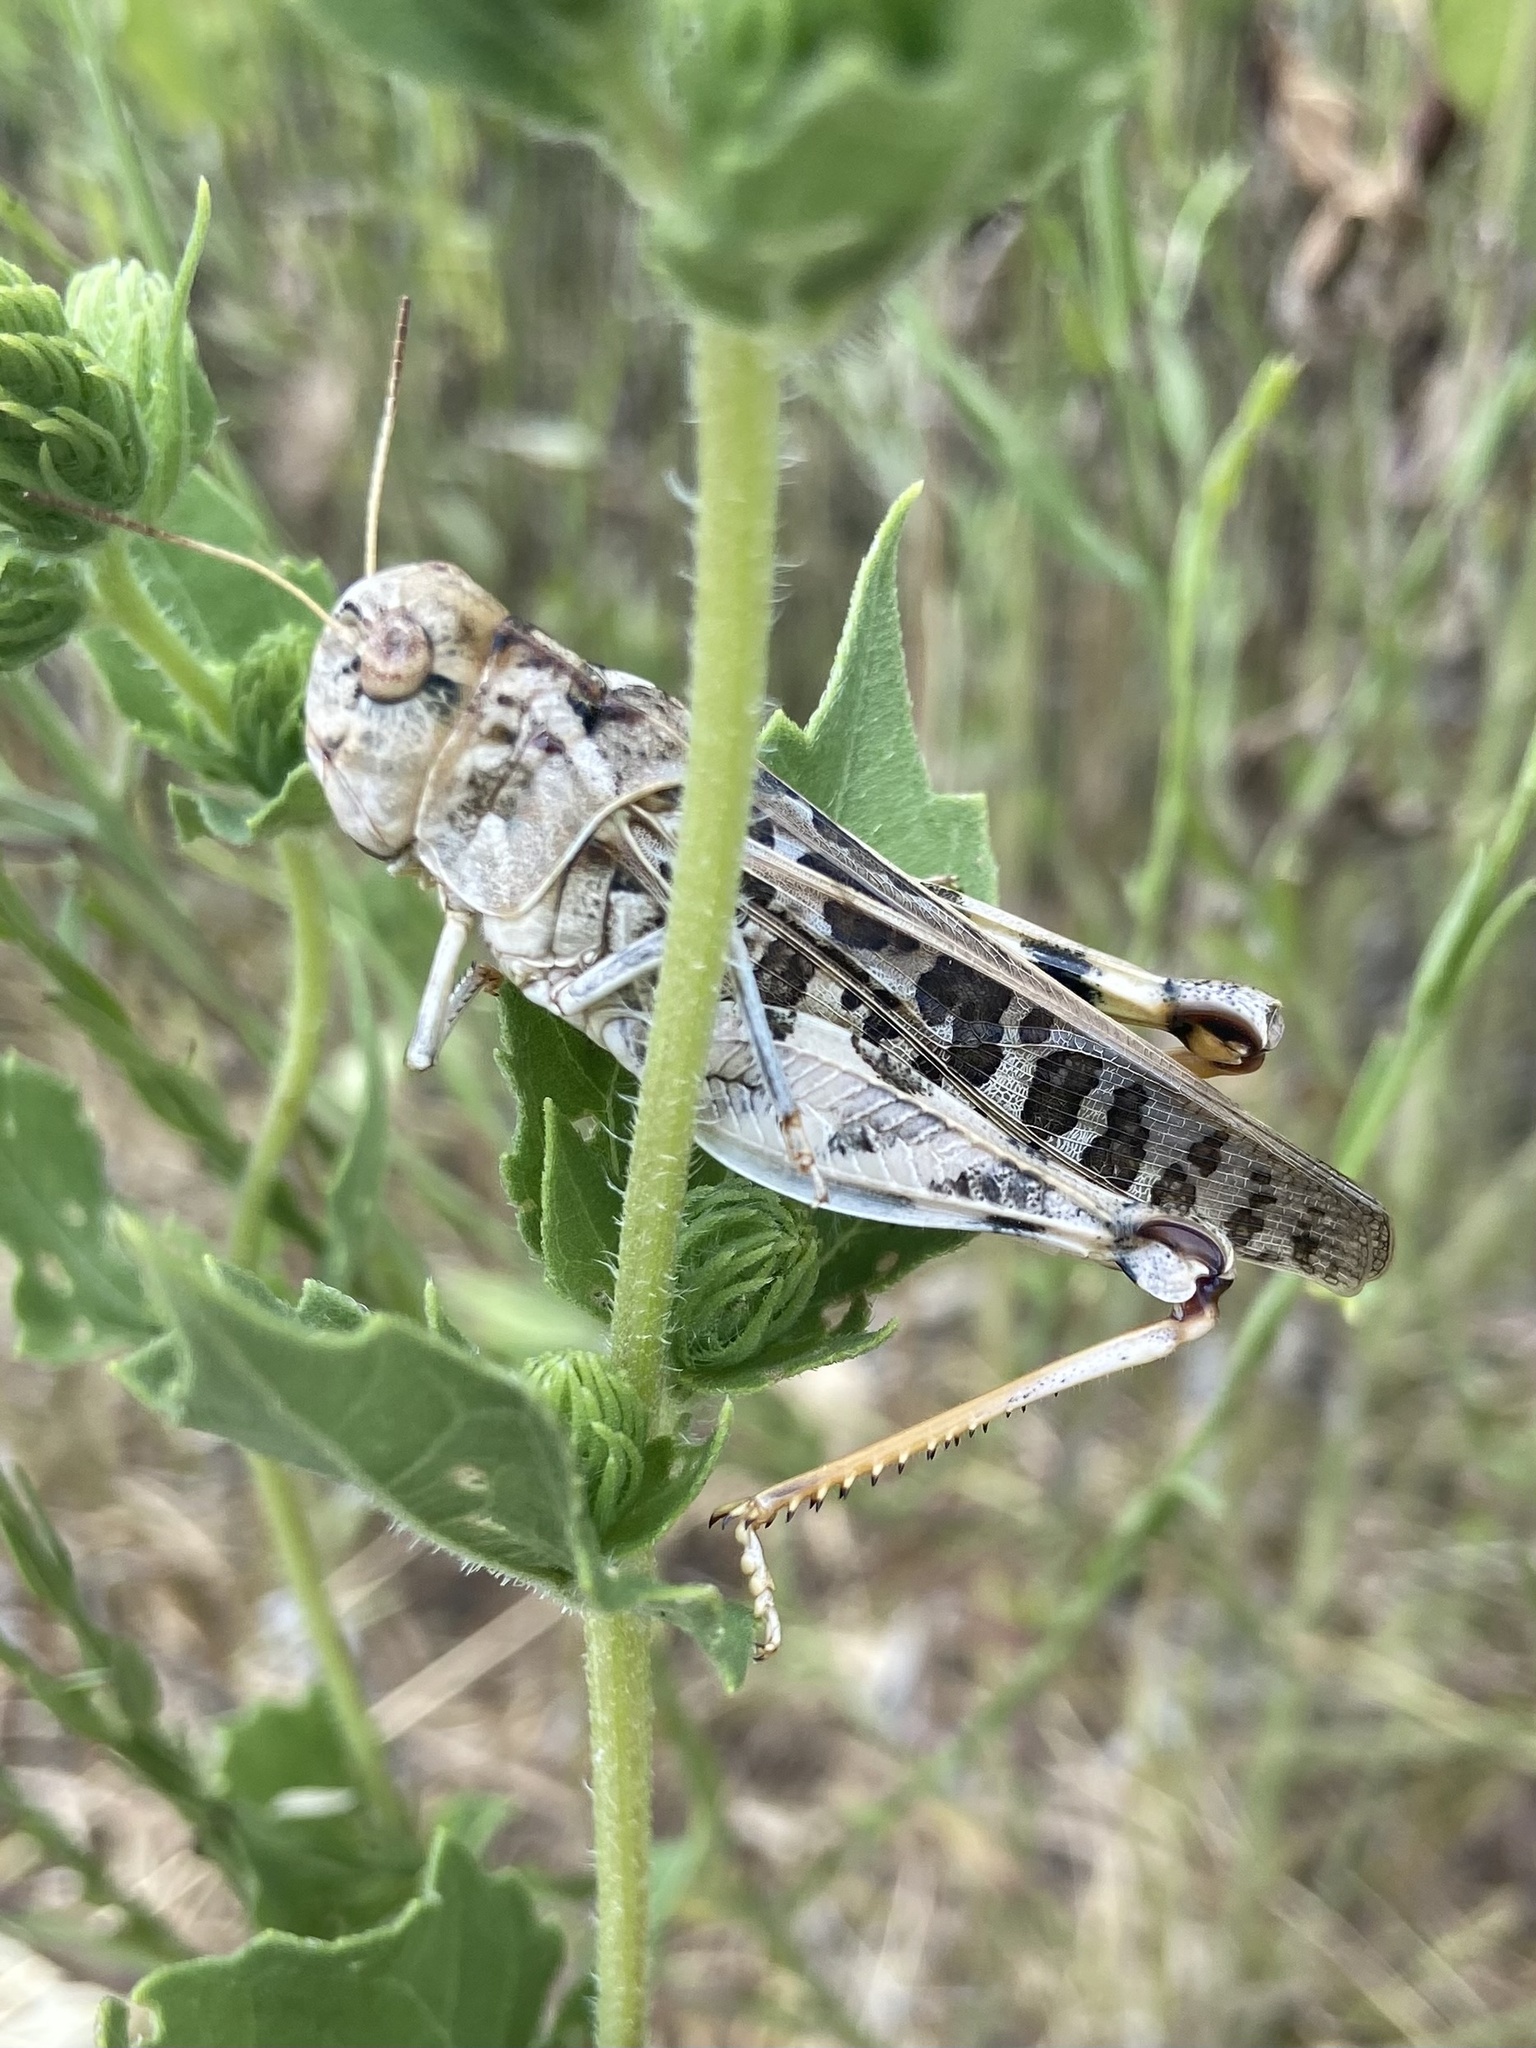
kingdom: Animalia
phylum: Arthropoda
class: Insecta
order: Orthoptera
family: Acrididae
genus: Hippiscus
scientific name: Hippiscus ocelote
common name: Wrinkled grasshopper
